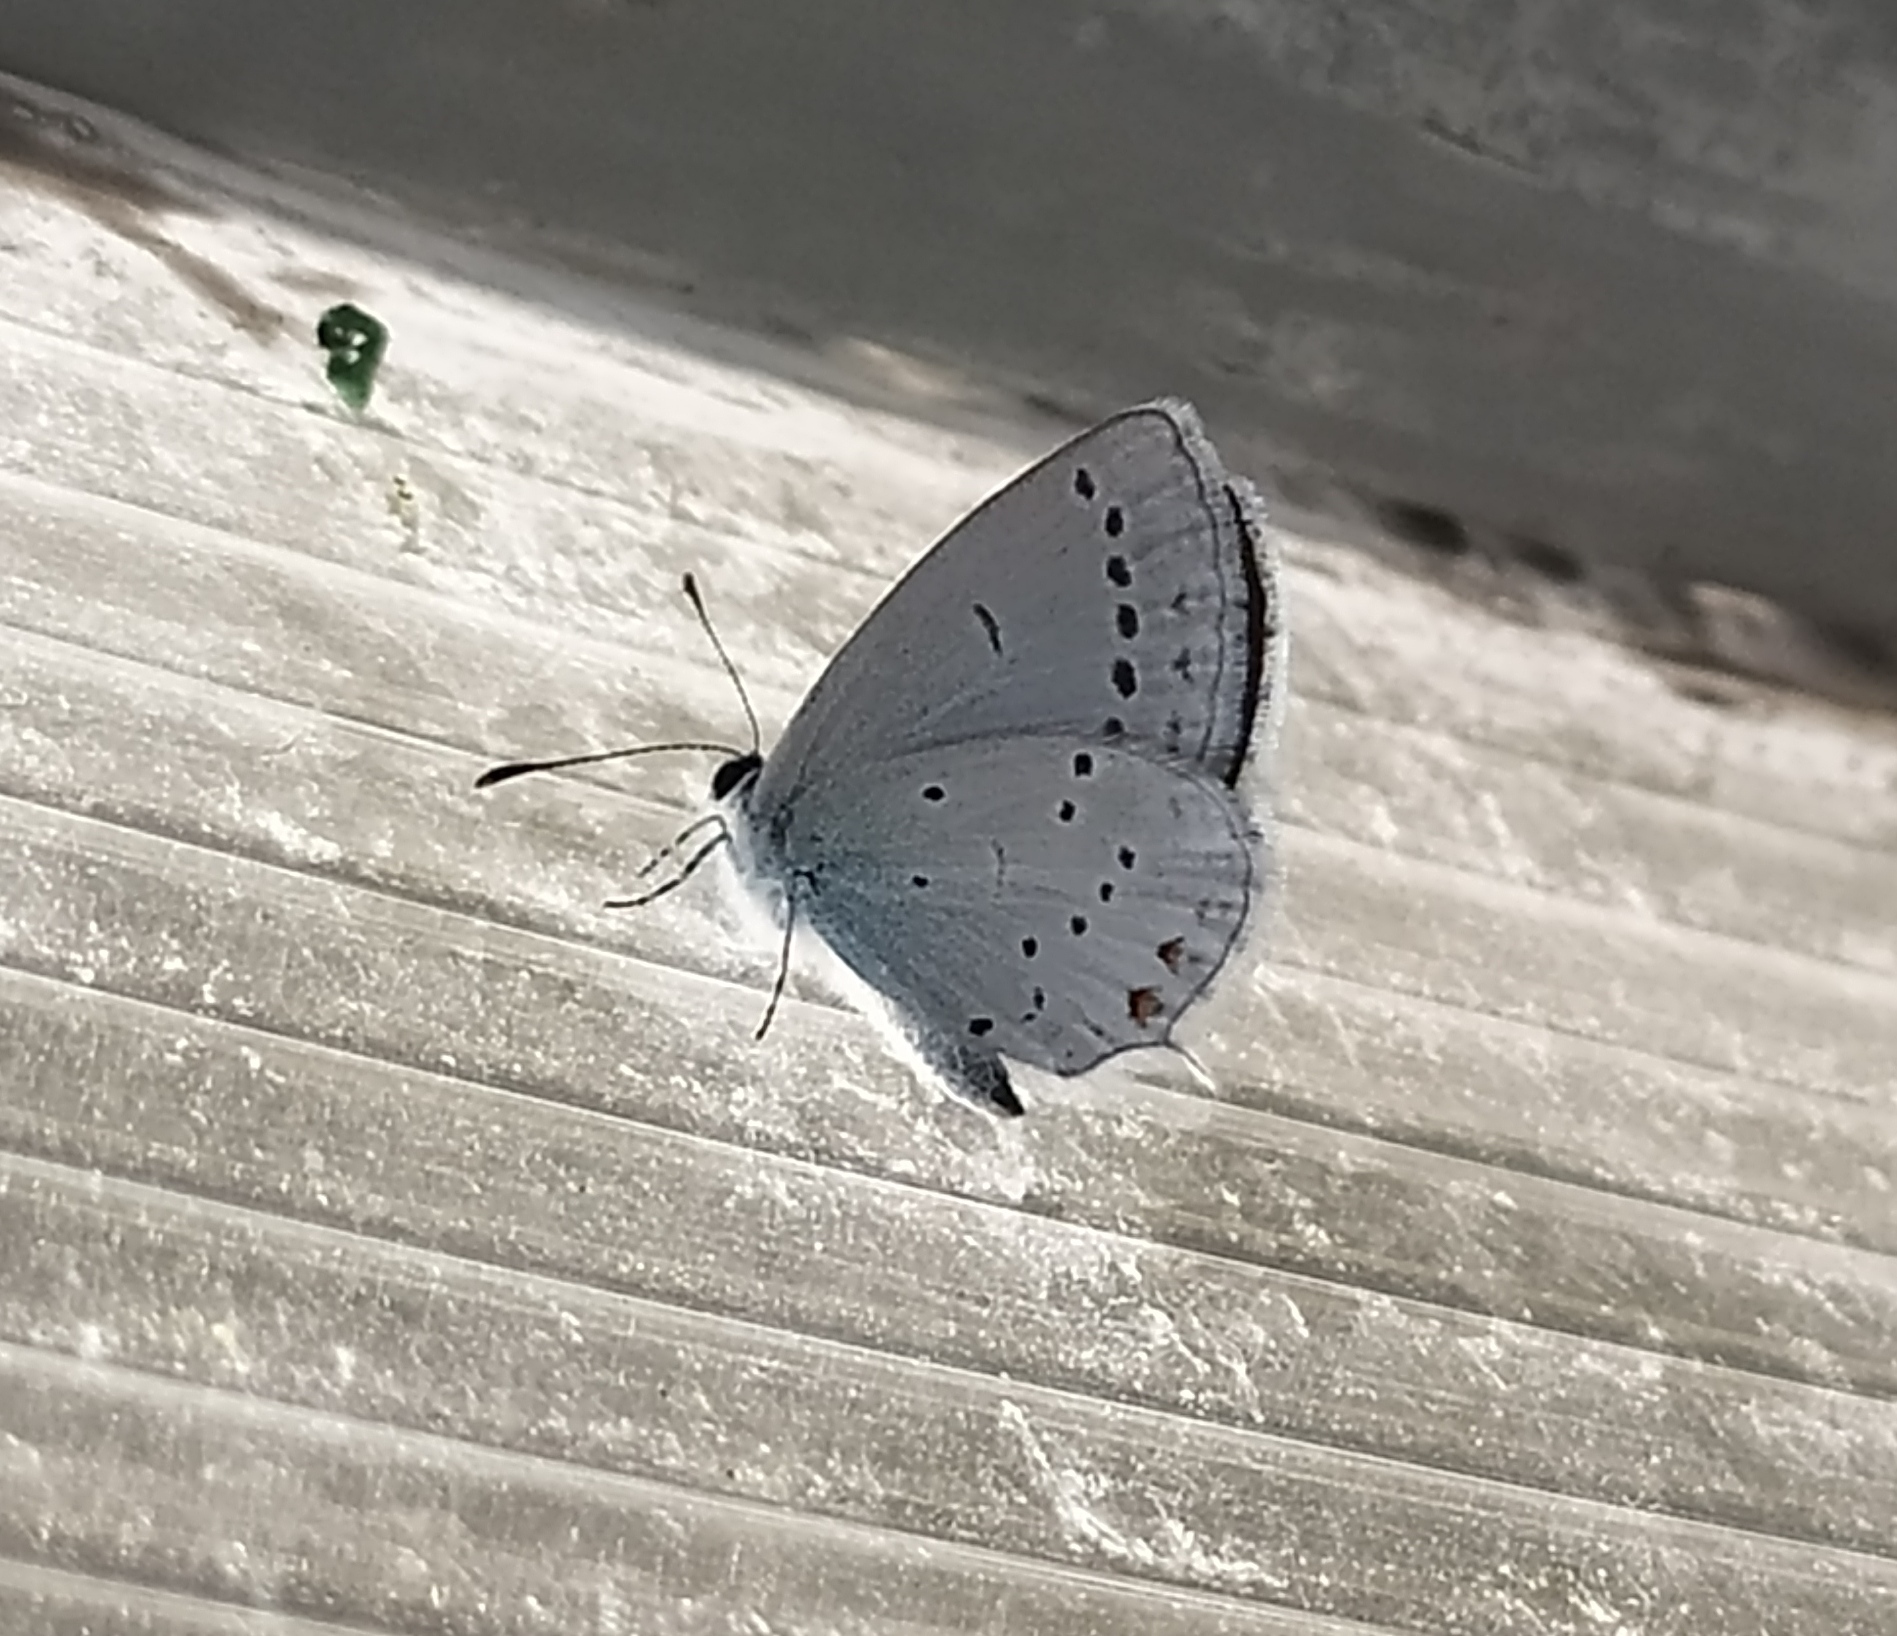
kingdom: Animalia
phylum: Arthropoda
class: Insecta
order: Lepidoptera
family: Lycaenidae
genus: Elkalyce
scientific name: Elkalyce argiades
